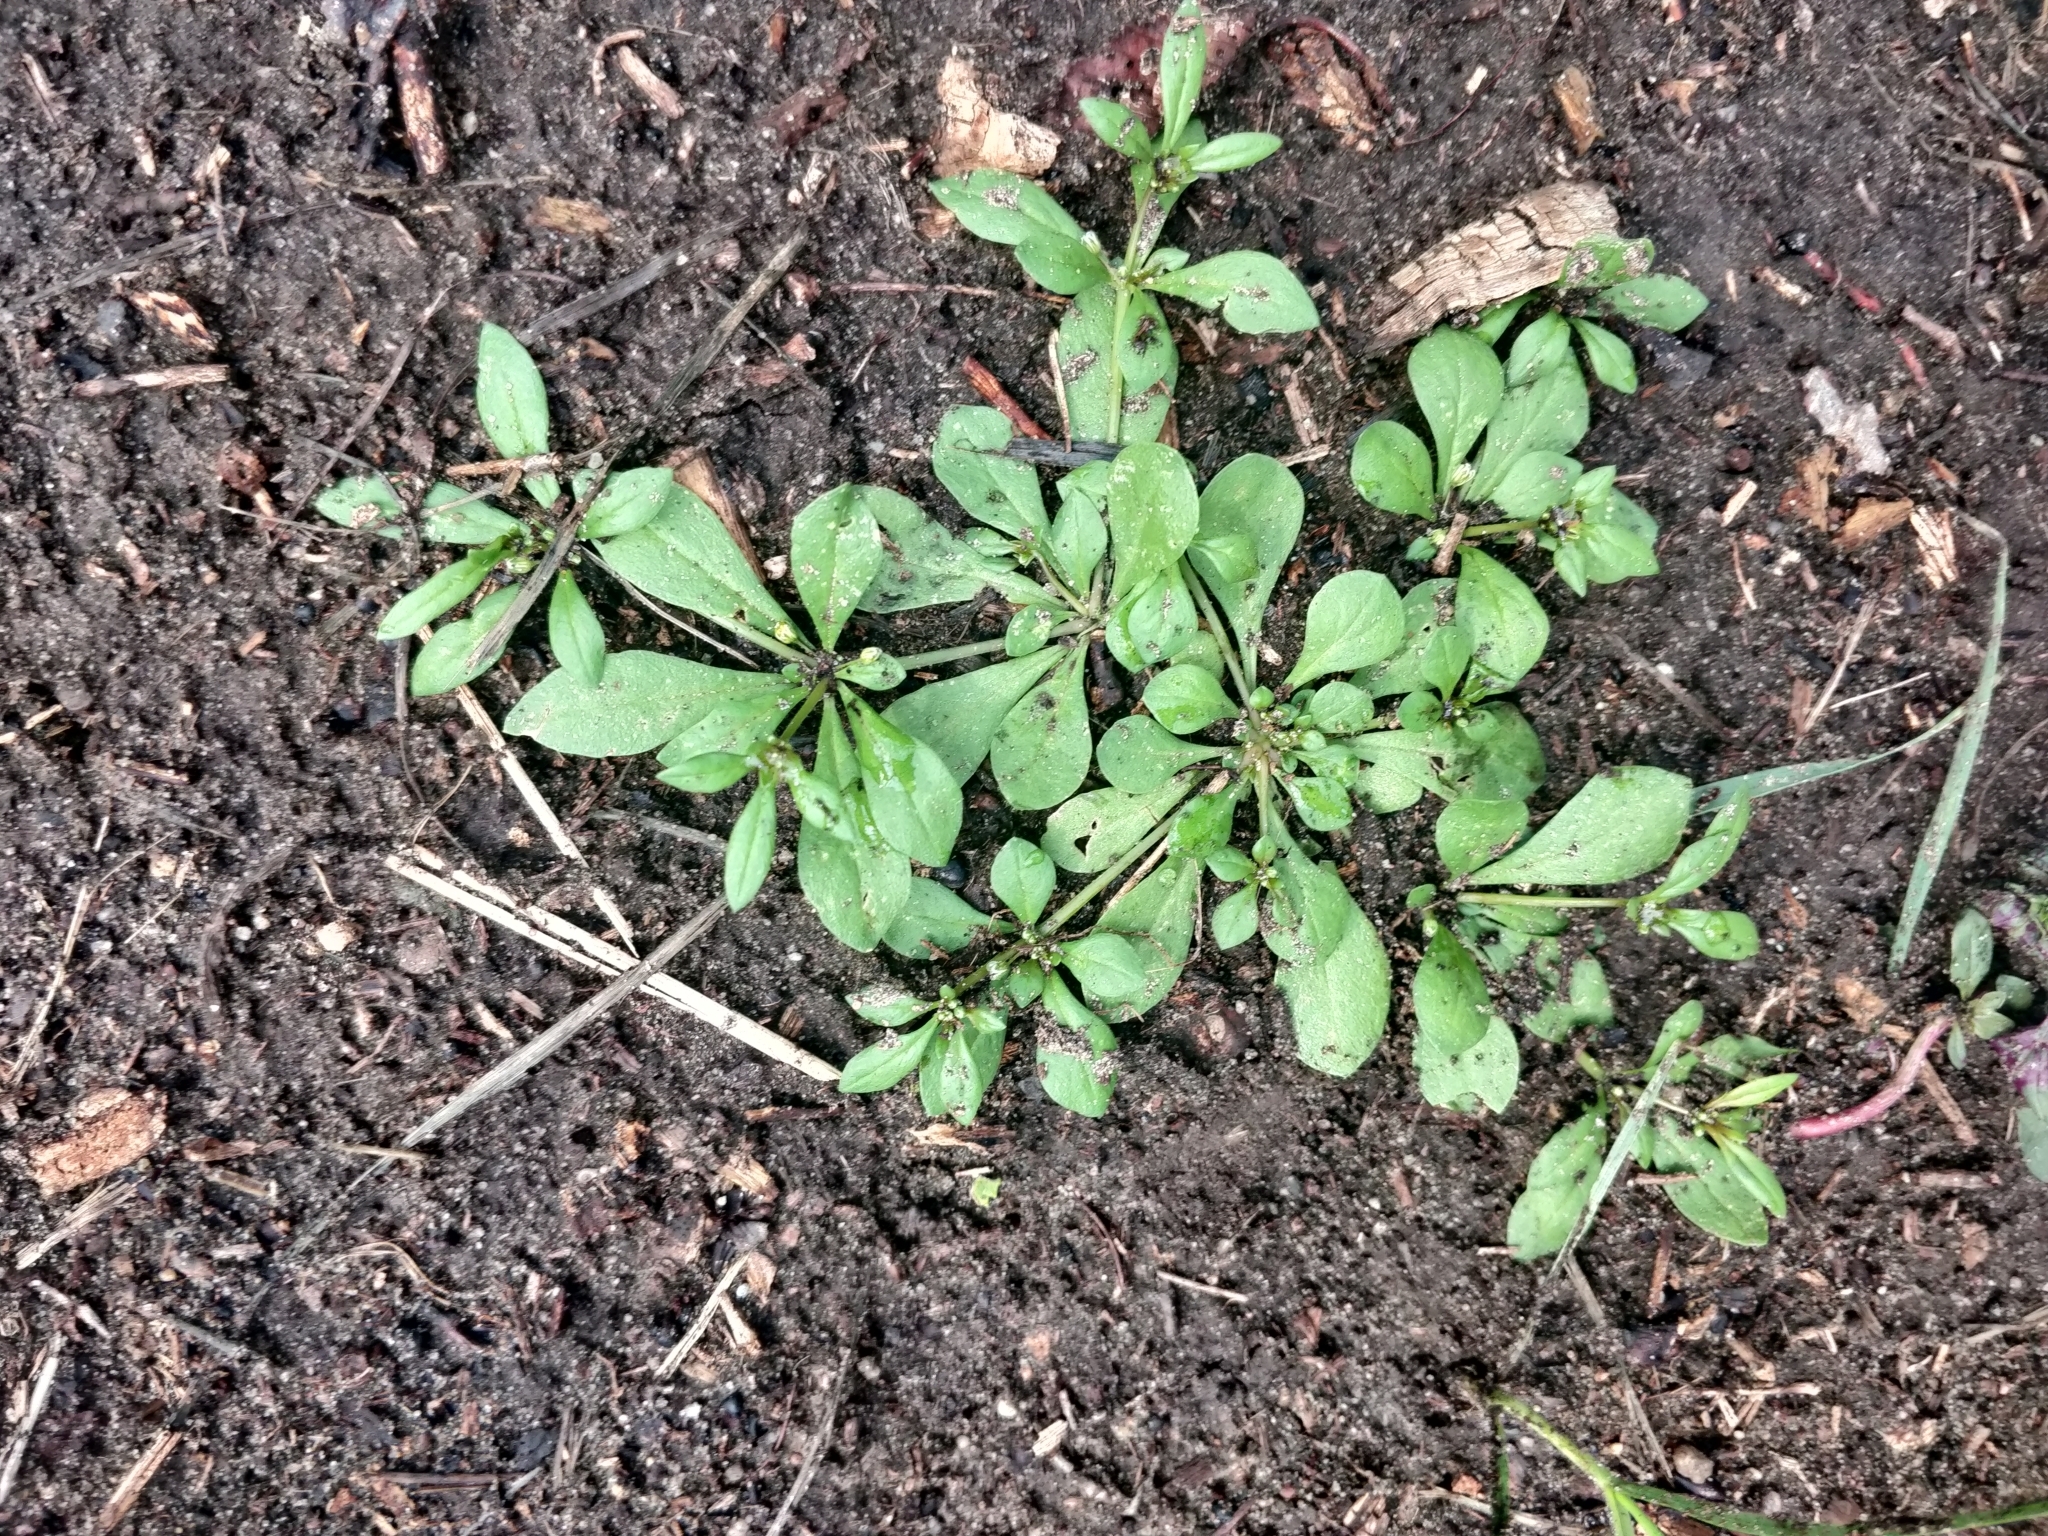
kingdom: Plantae
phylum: Tracheophyta
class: Magnoliopsida
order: Caryophyllales
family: Molluginaceae
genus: Mollugo
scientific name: Mollugo verticillata
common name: Green carpetweed
